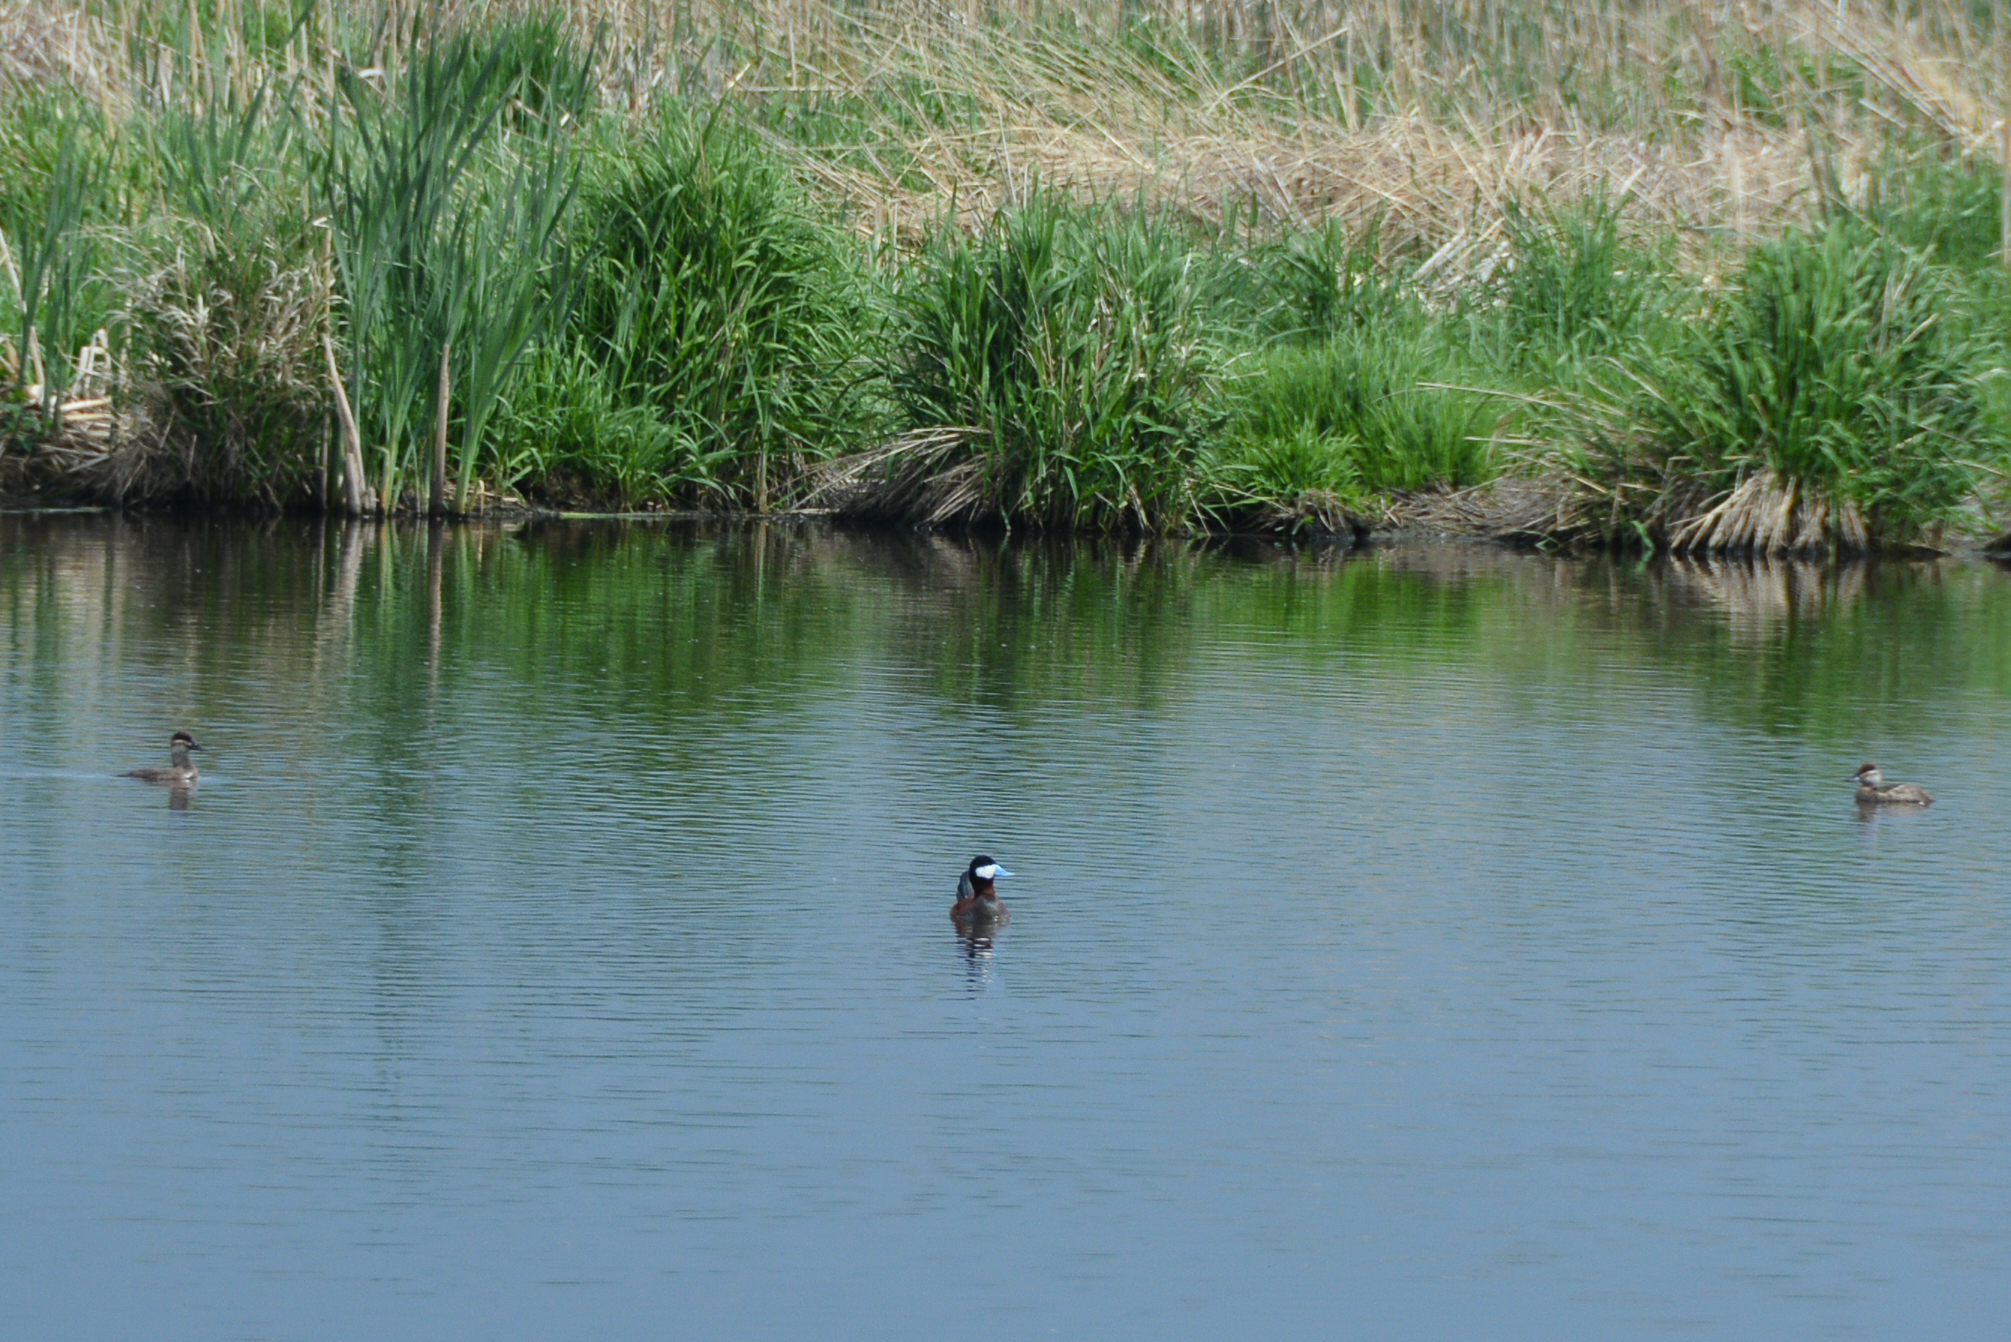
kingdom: Animalia
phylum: Chordata
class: Aves
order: Anseriformes
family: Anatidae
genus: Oxyura
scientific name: Oxyura jamaicensis
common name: Ruddy duck
